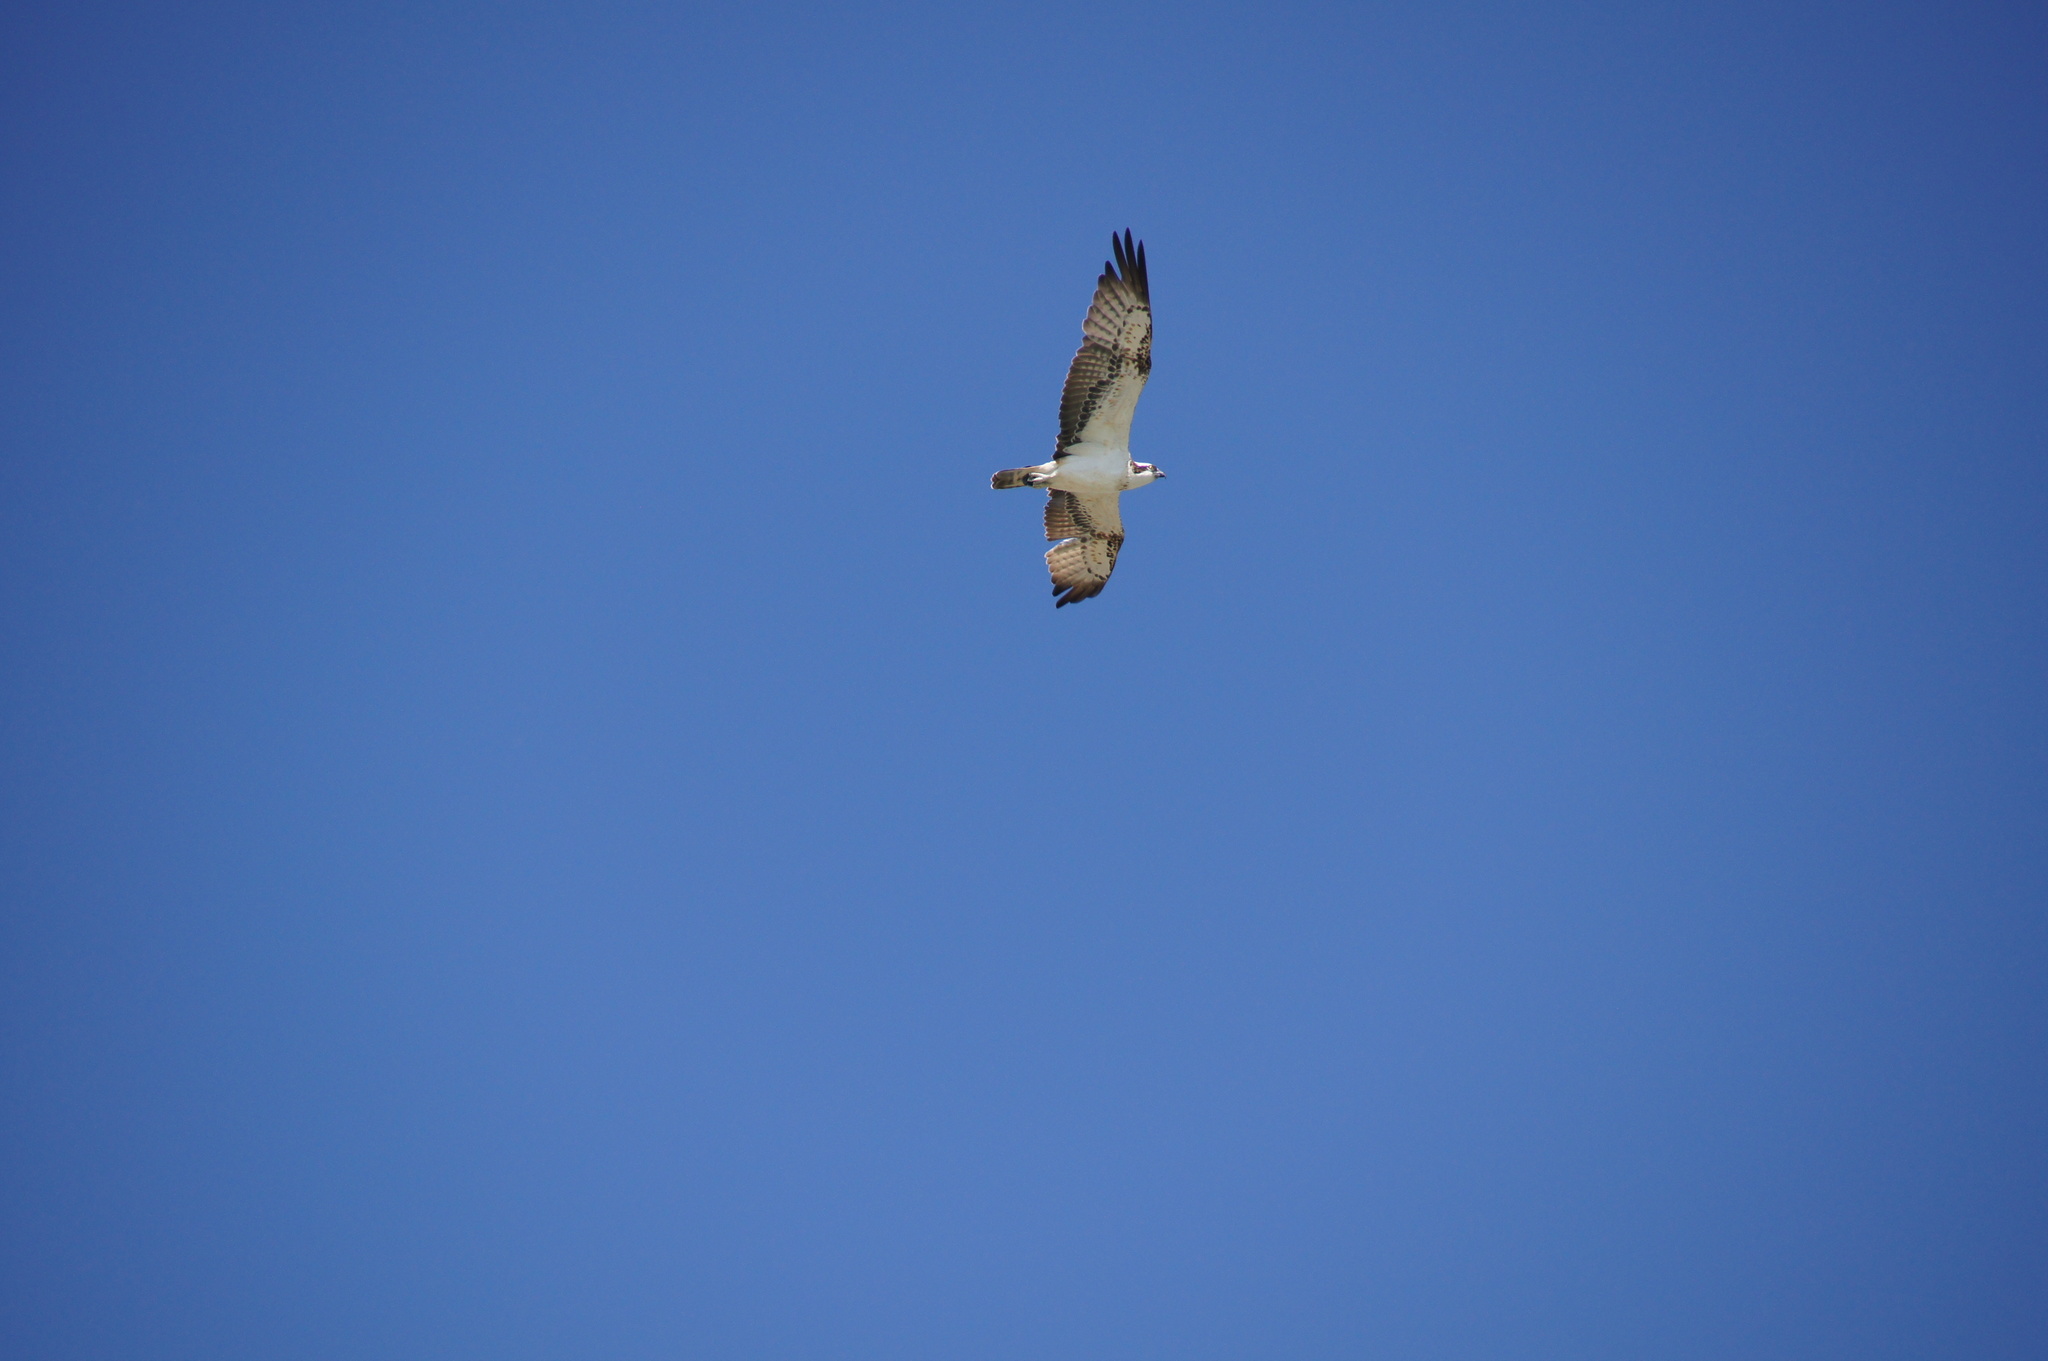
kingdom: Animalia
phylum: Chordata
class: Aves
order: Accipitriformes
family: Pandionidae
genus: Pandion
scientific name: Pandion haliaetus
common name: Osprey
